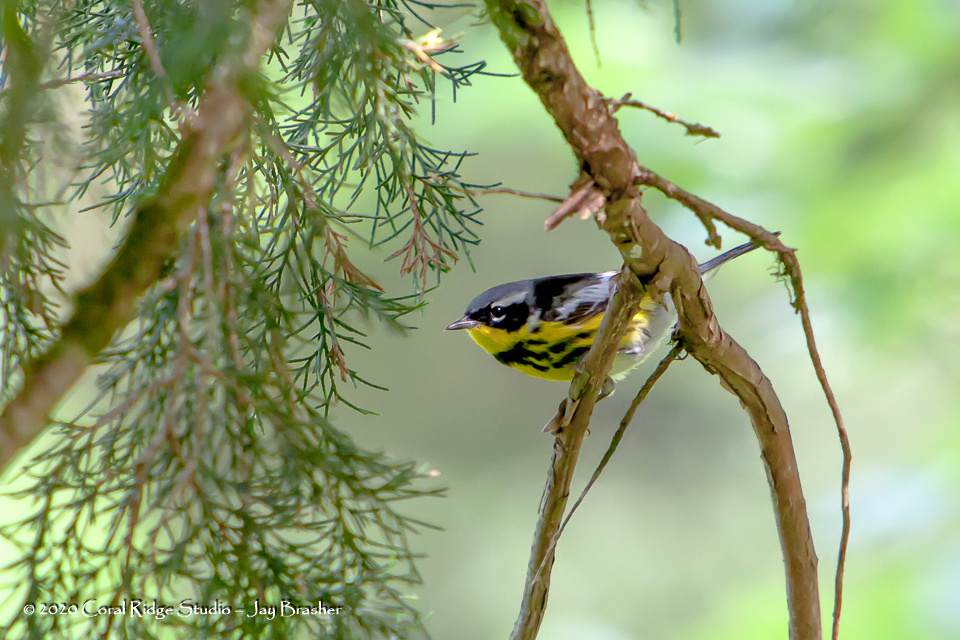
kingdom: Animalia
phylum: Chordata
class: Aves
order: Passeriformes
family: Parulidae
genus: Setophaga
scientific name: Setophaga magnolia
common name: Magnolia warbler
